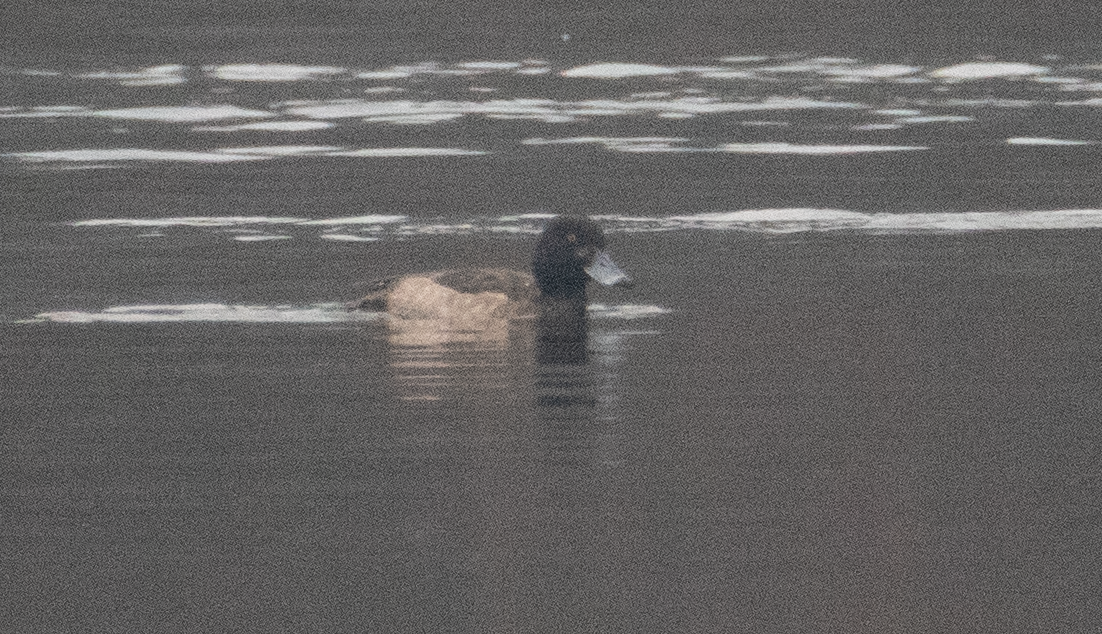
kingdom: Animalia
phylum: Chordata
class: Aves
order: Anseriformes
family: Anatidae
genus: Aythya
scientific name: Aythya fuligula
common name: Tufted duck
